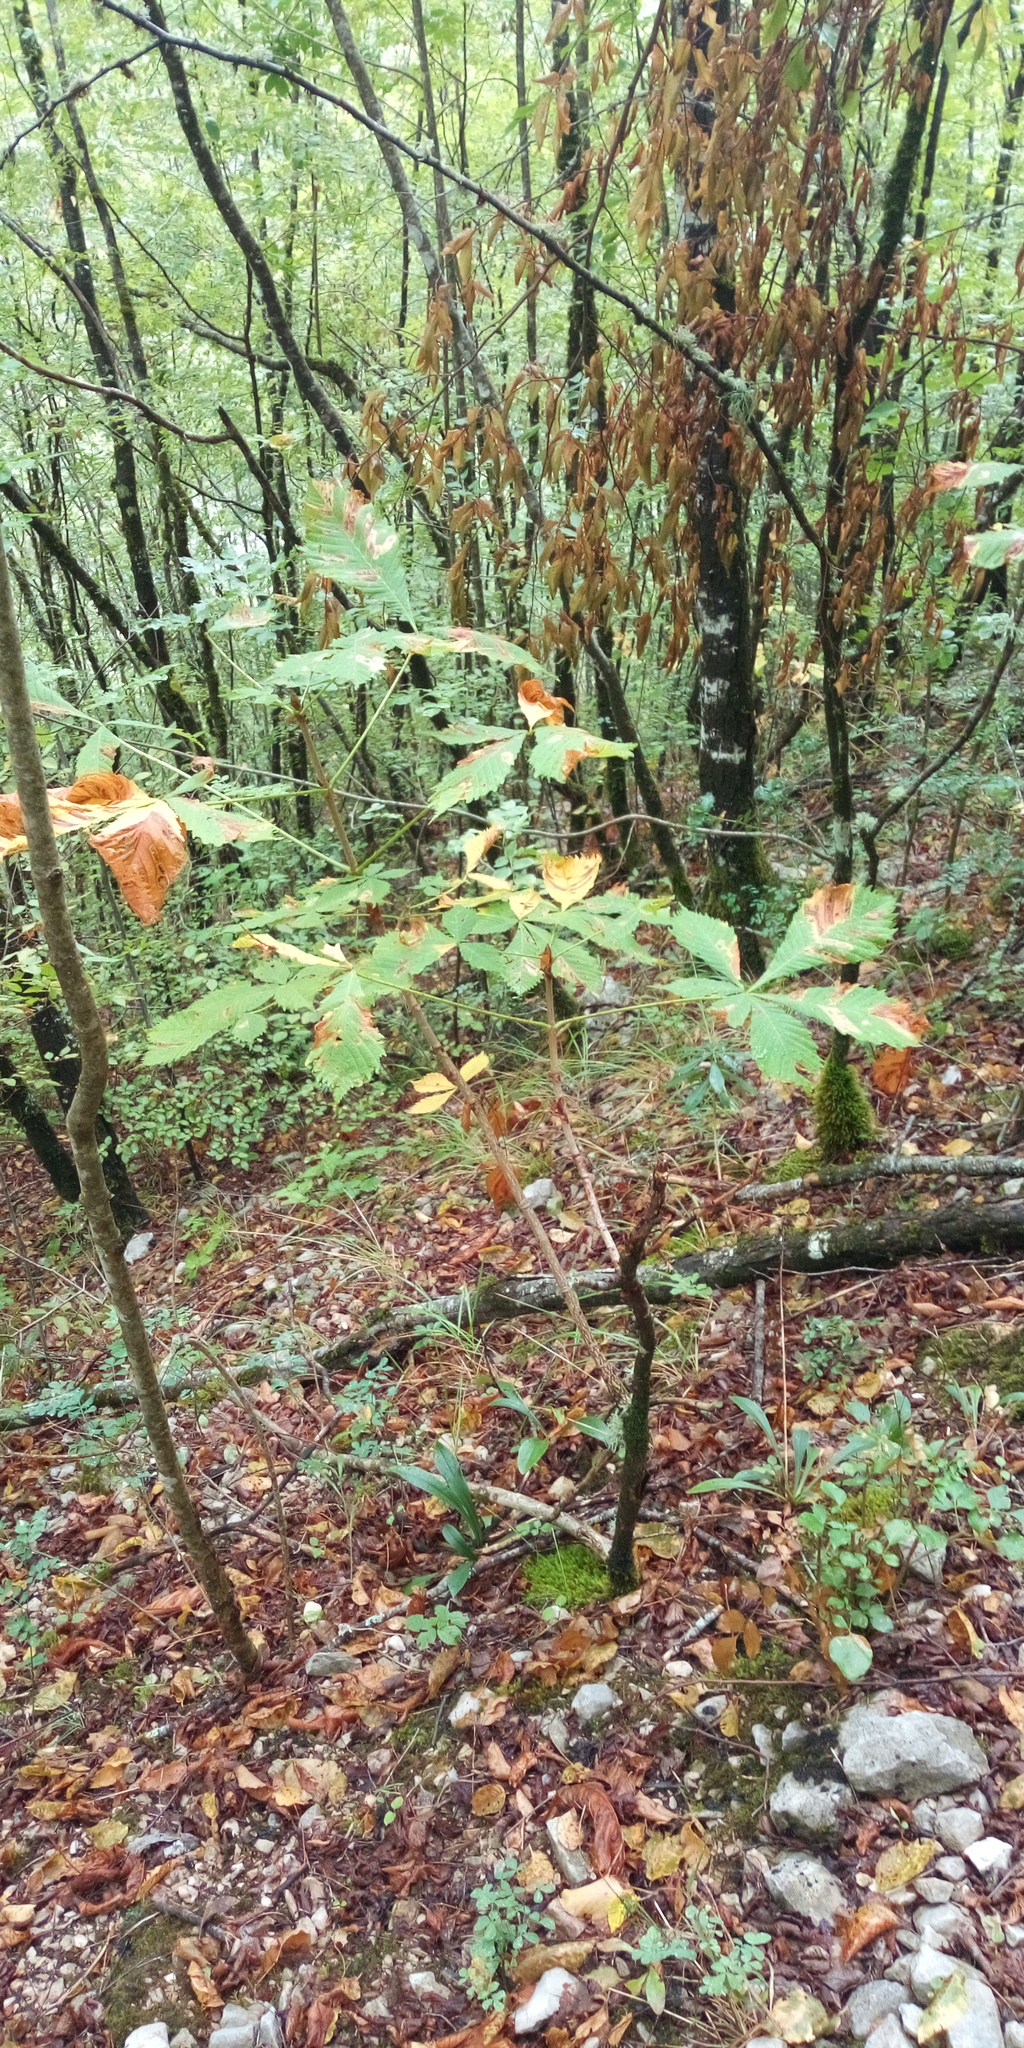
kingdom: Plantae
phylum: Tracheophyta
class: Magnoliopsida
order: Sapindales
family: Sapindaceae
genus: Aesculus
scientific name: Aesculus hippocastanum
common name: Horse-chestnut
